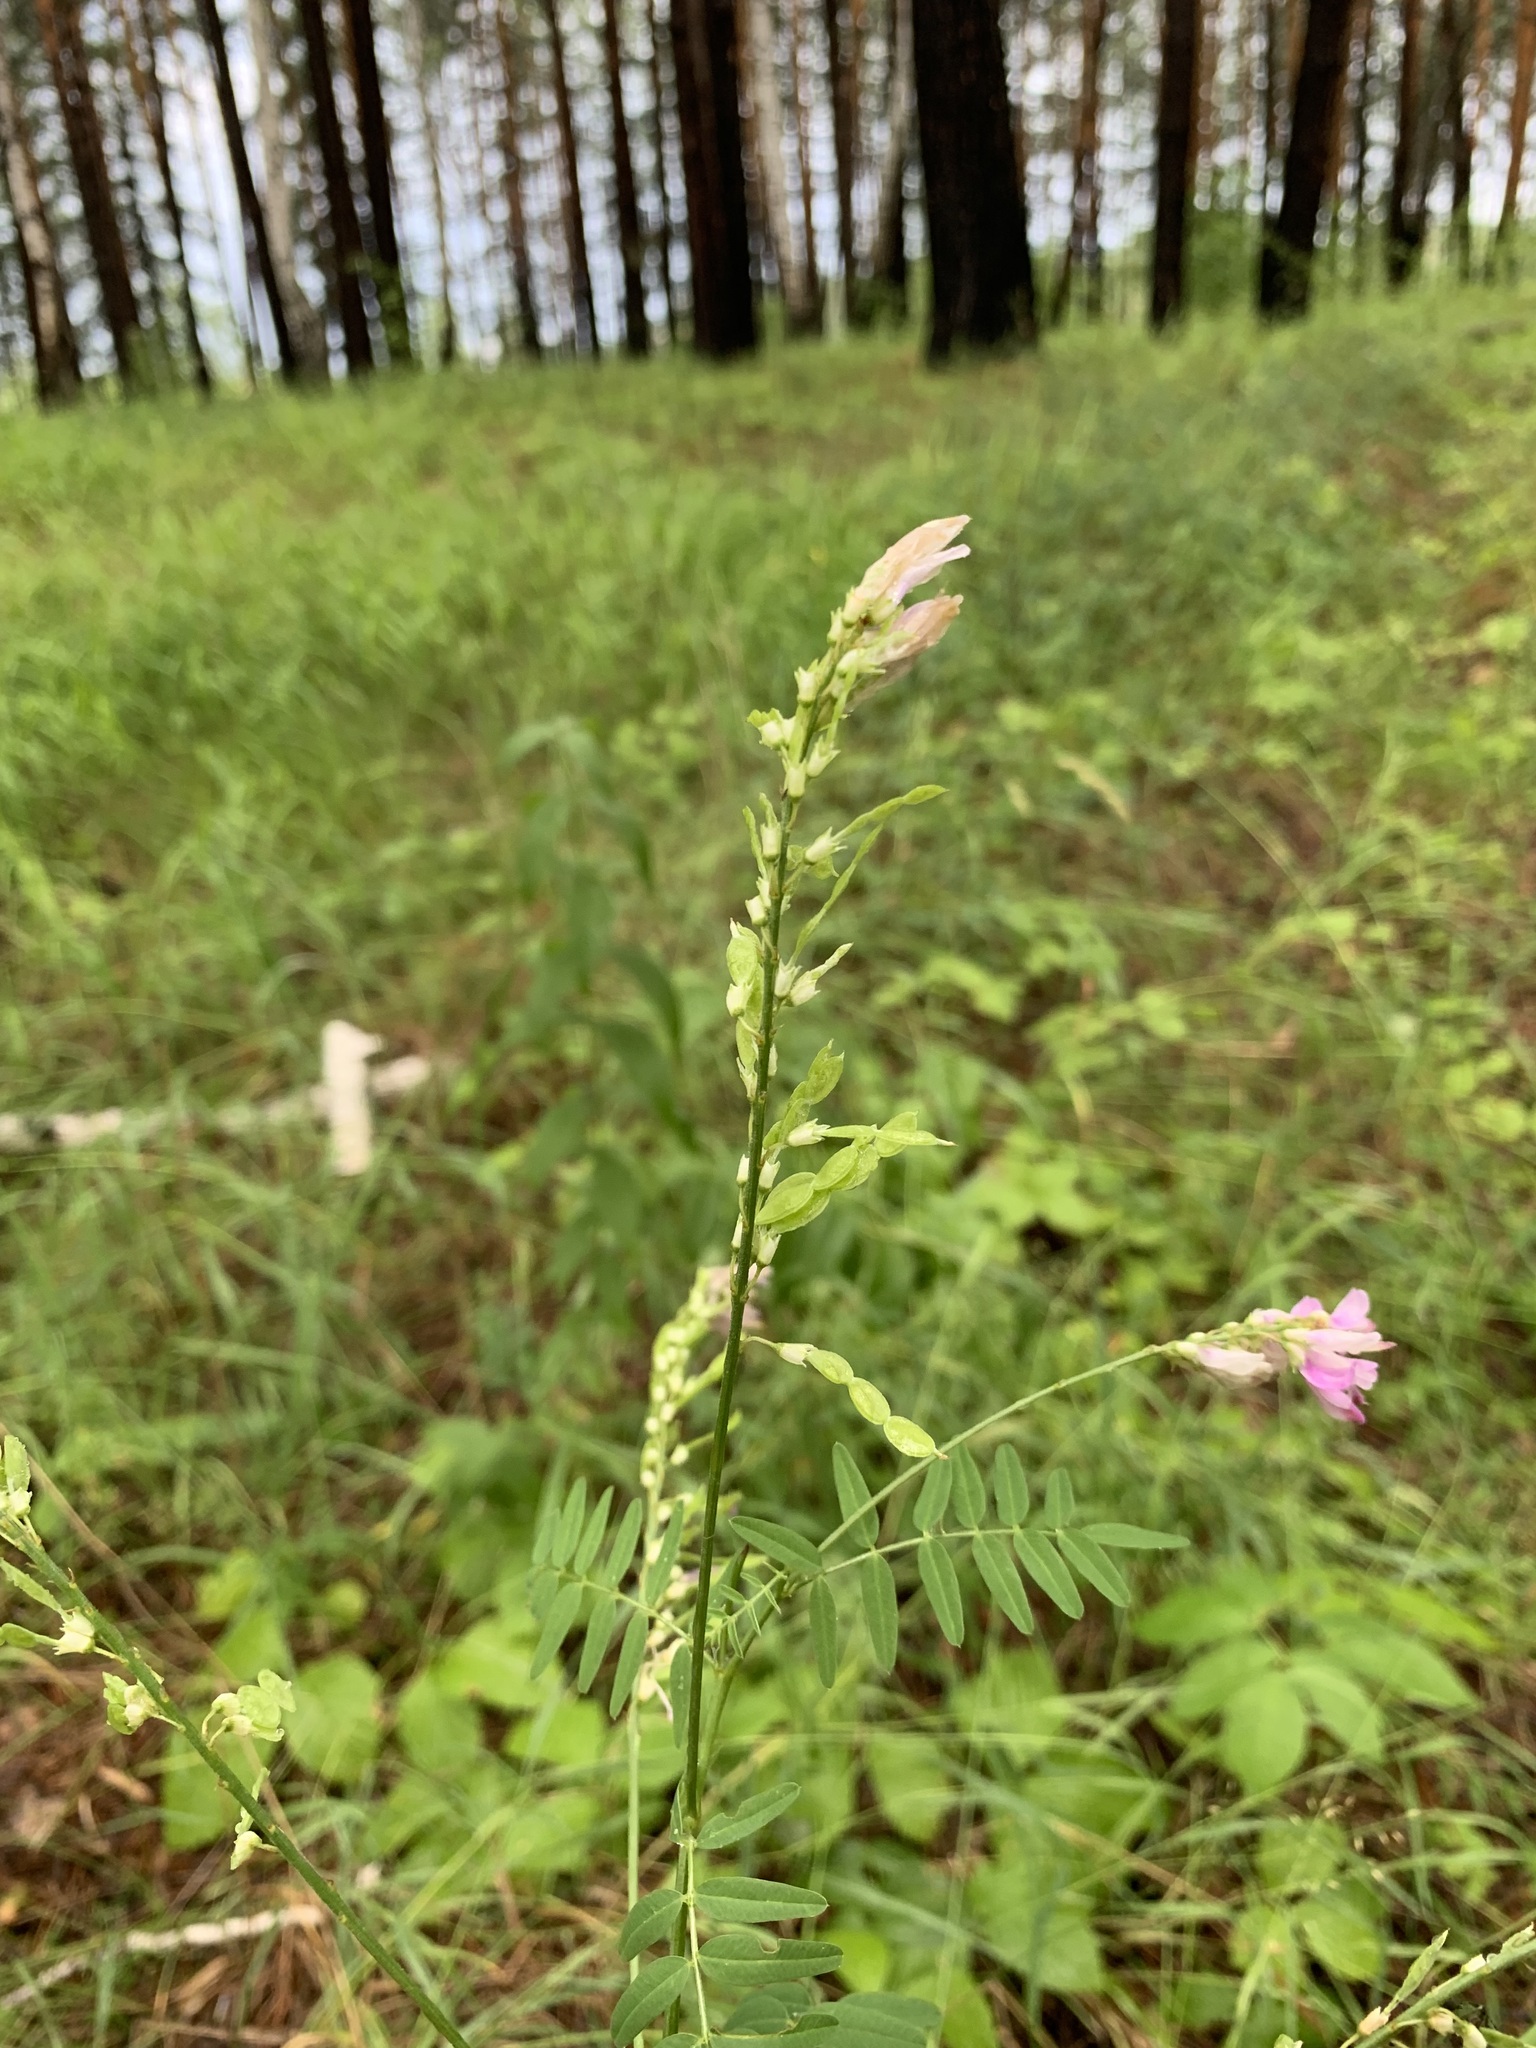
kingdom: Plantae
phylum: Tracheophyta
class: Magnoliopsida
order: Fabales
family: Fabaceae
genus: Hedysarum
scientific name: Hedysarum alpinum
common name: Alpine sweet-vetch
